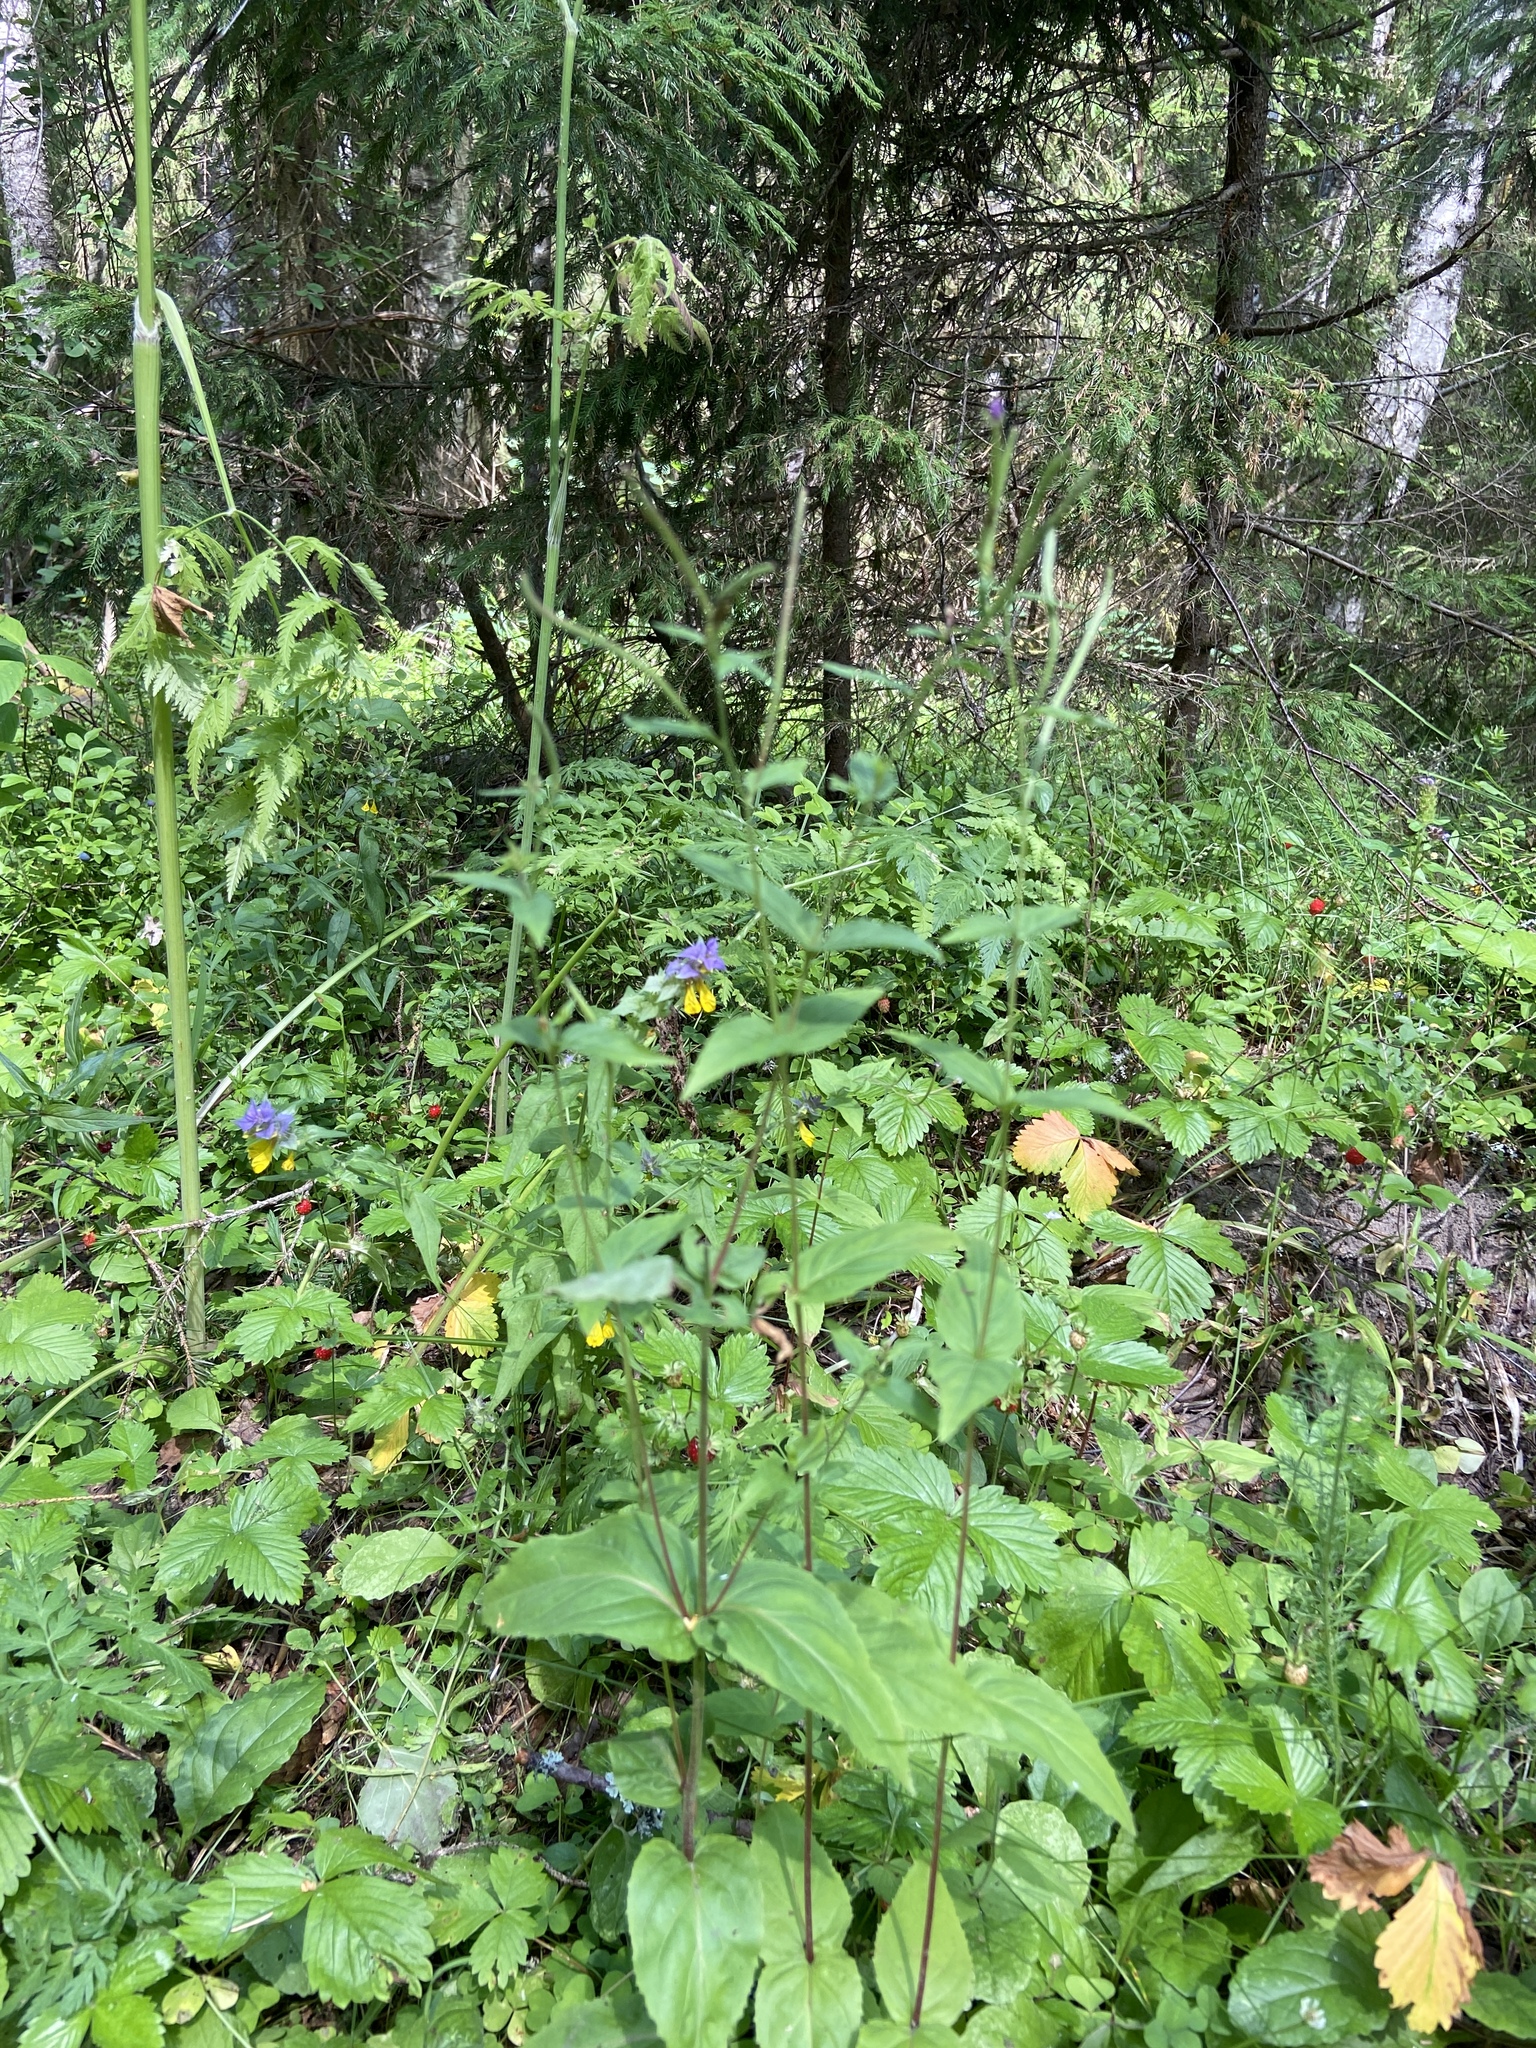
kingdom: Plantae
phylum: Tracheophyta
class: Magnoliopsida
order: Myrtales
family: Onagraceae
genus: Epilobium
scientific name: Epilobium montanum
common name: Broad-leaved willowherb
